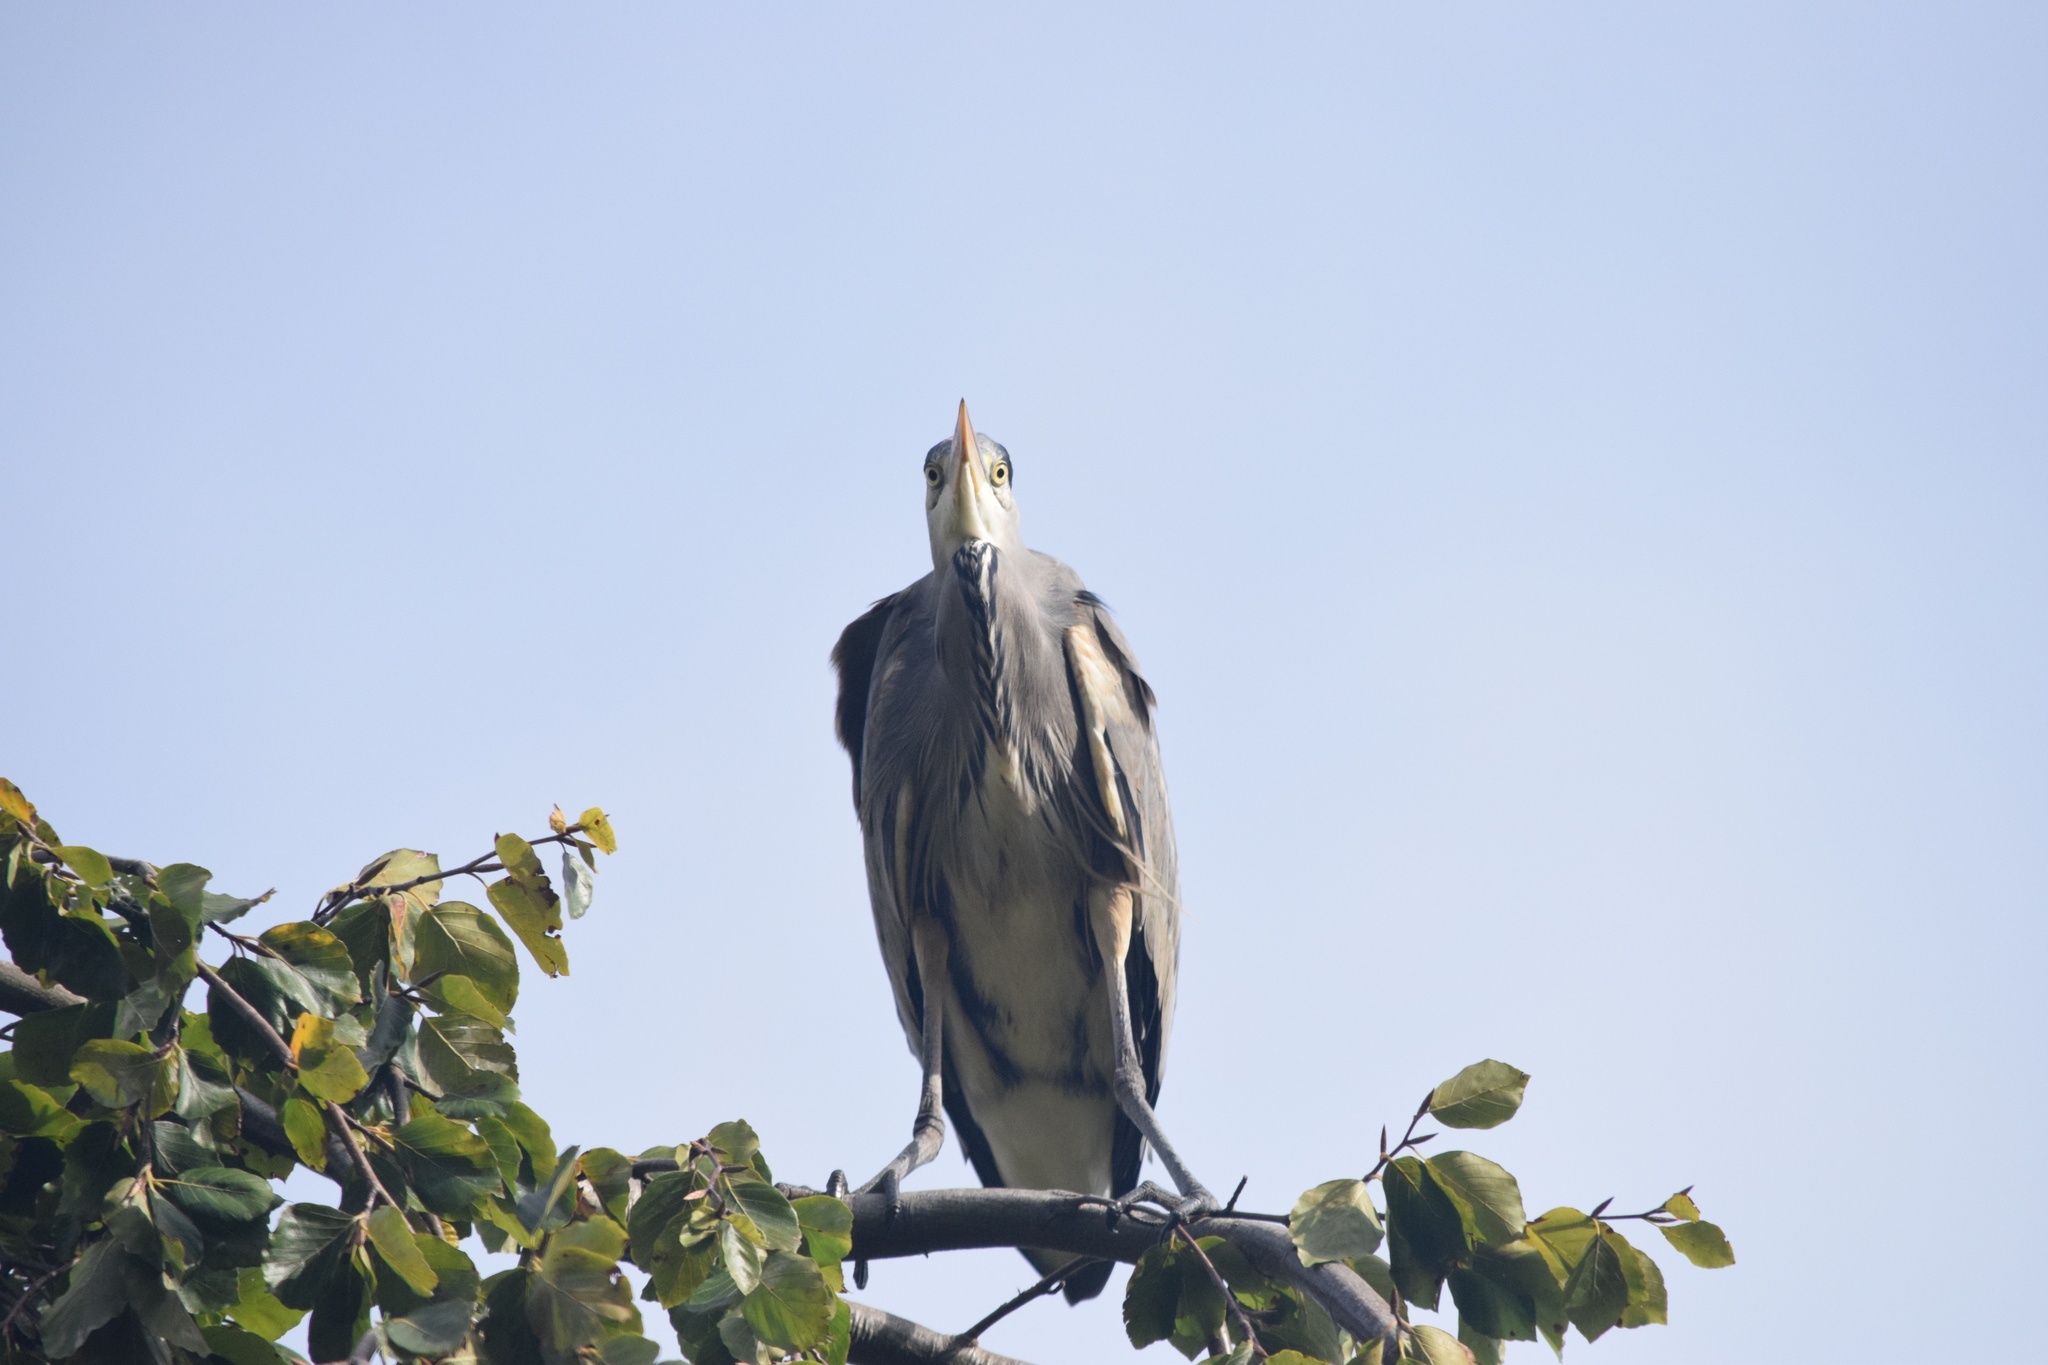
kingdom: Animalia
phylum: Chordata
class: Aves
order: Pelecaniformes
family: Ardeidae
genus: Ardea
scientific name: Ardea cinerea
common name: Grey heron
